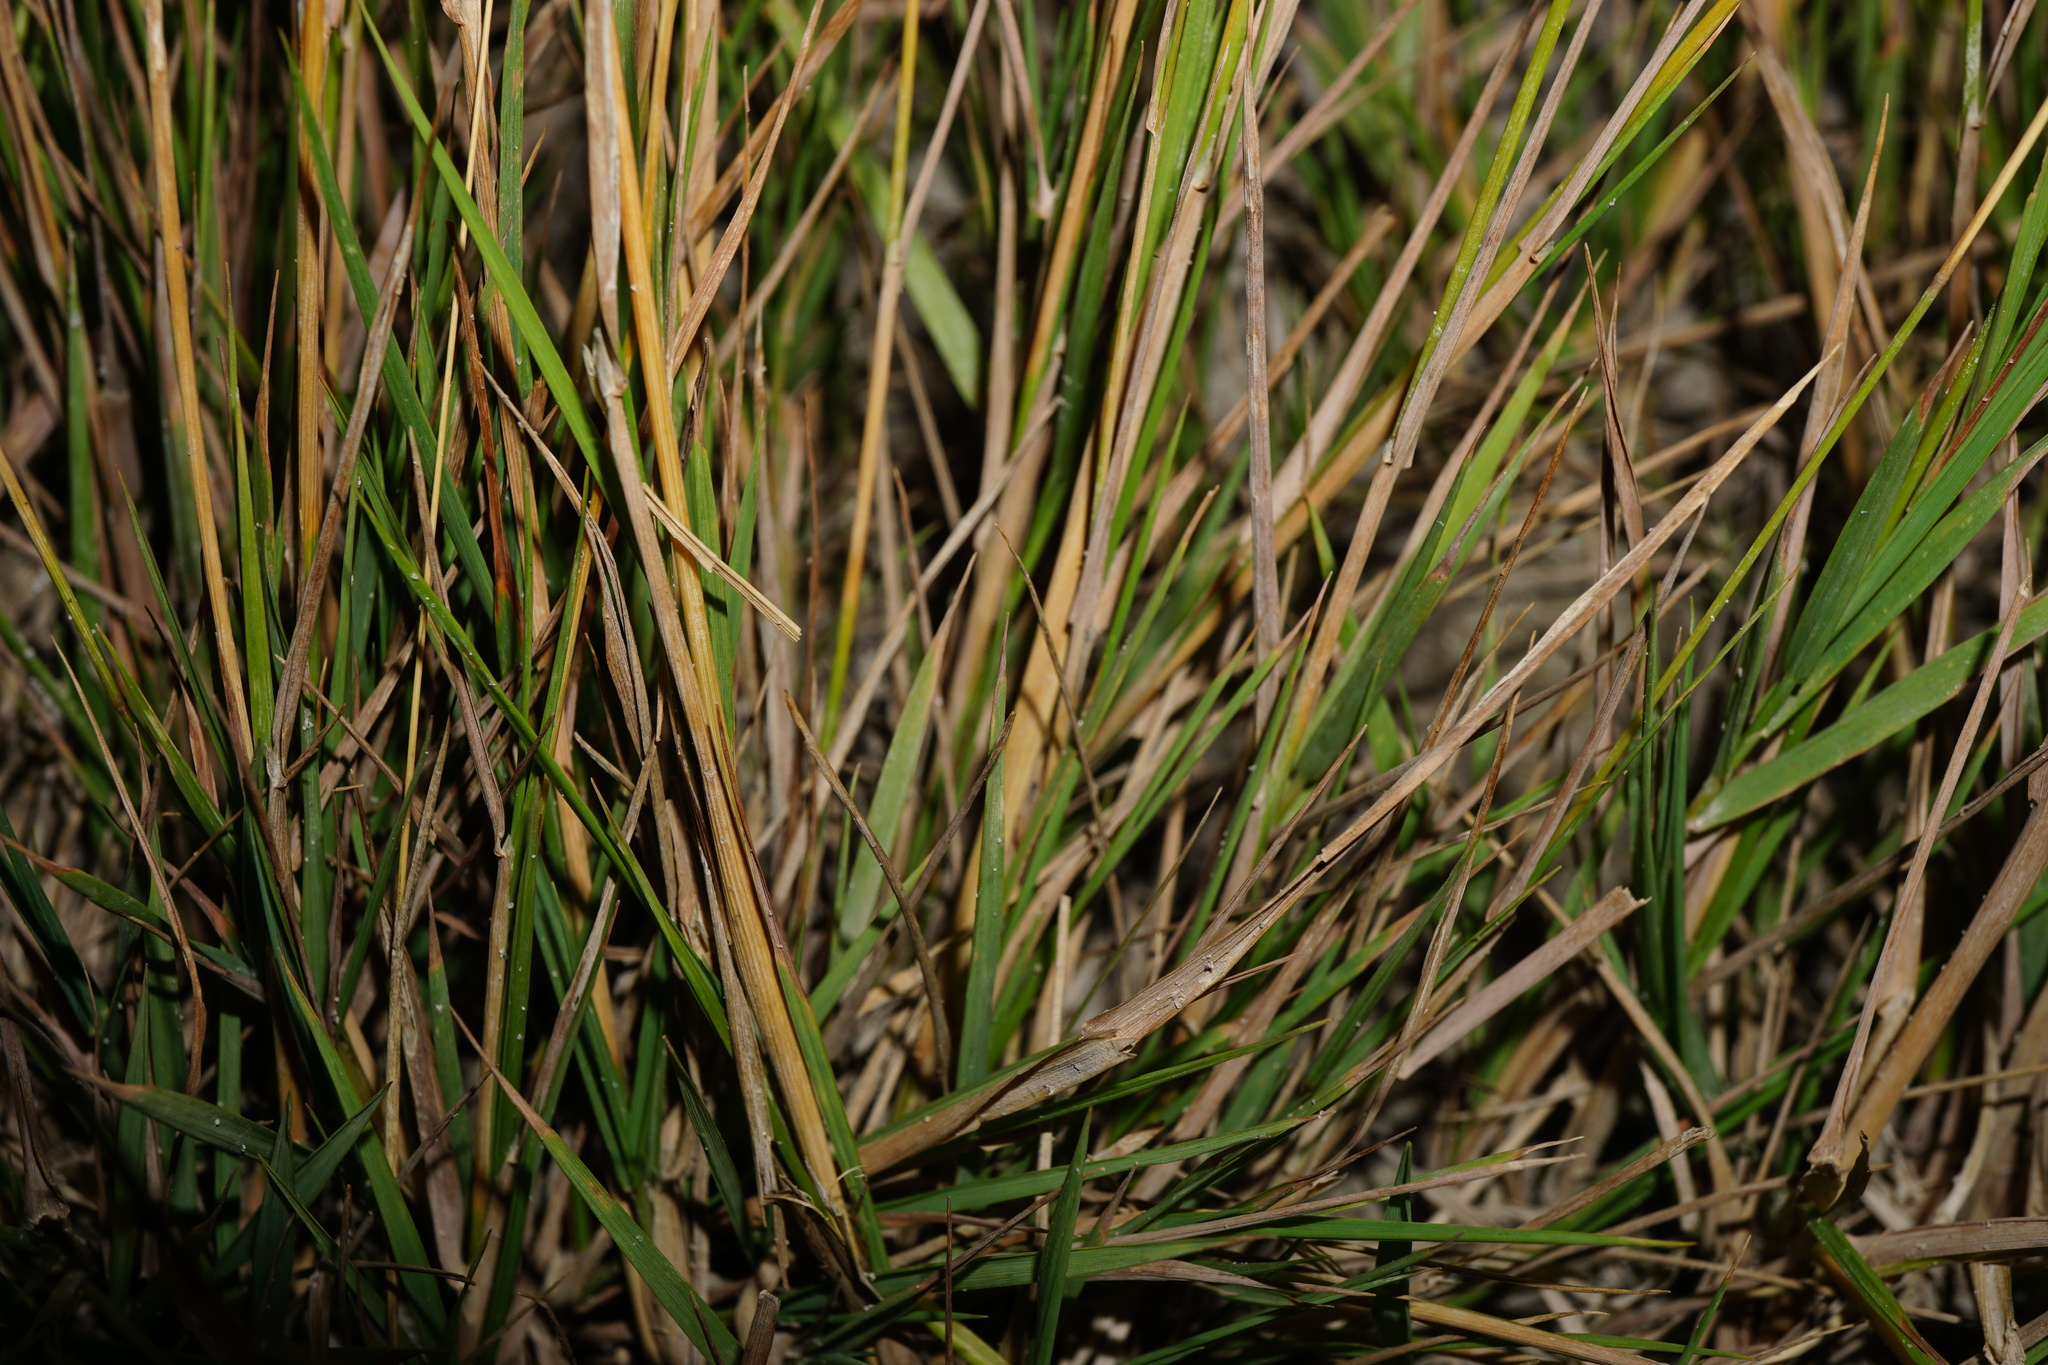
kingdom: Plantae
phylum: Tracheophyta
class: Liliopsida
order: Poales
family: Poaceae
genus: Puccinellia
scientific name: Puccinellia distans
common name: Weeping alkaligrass
